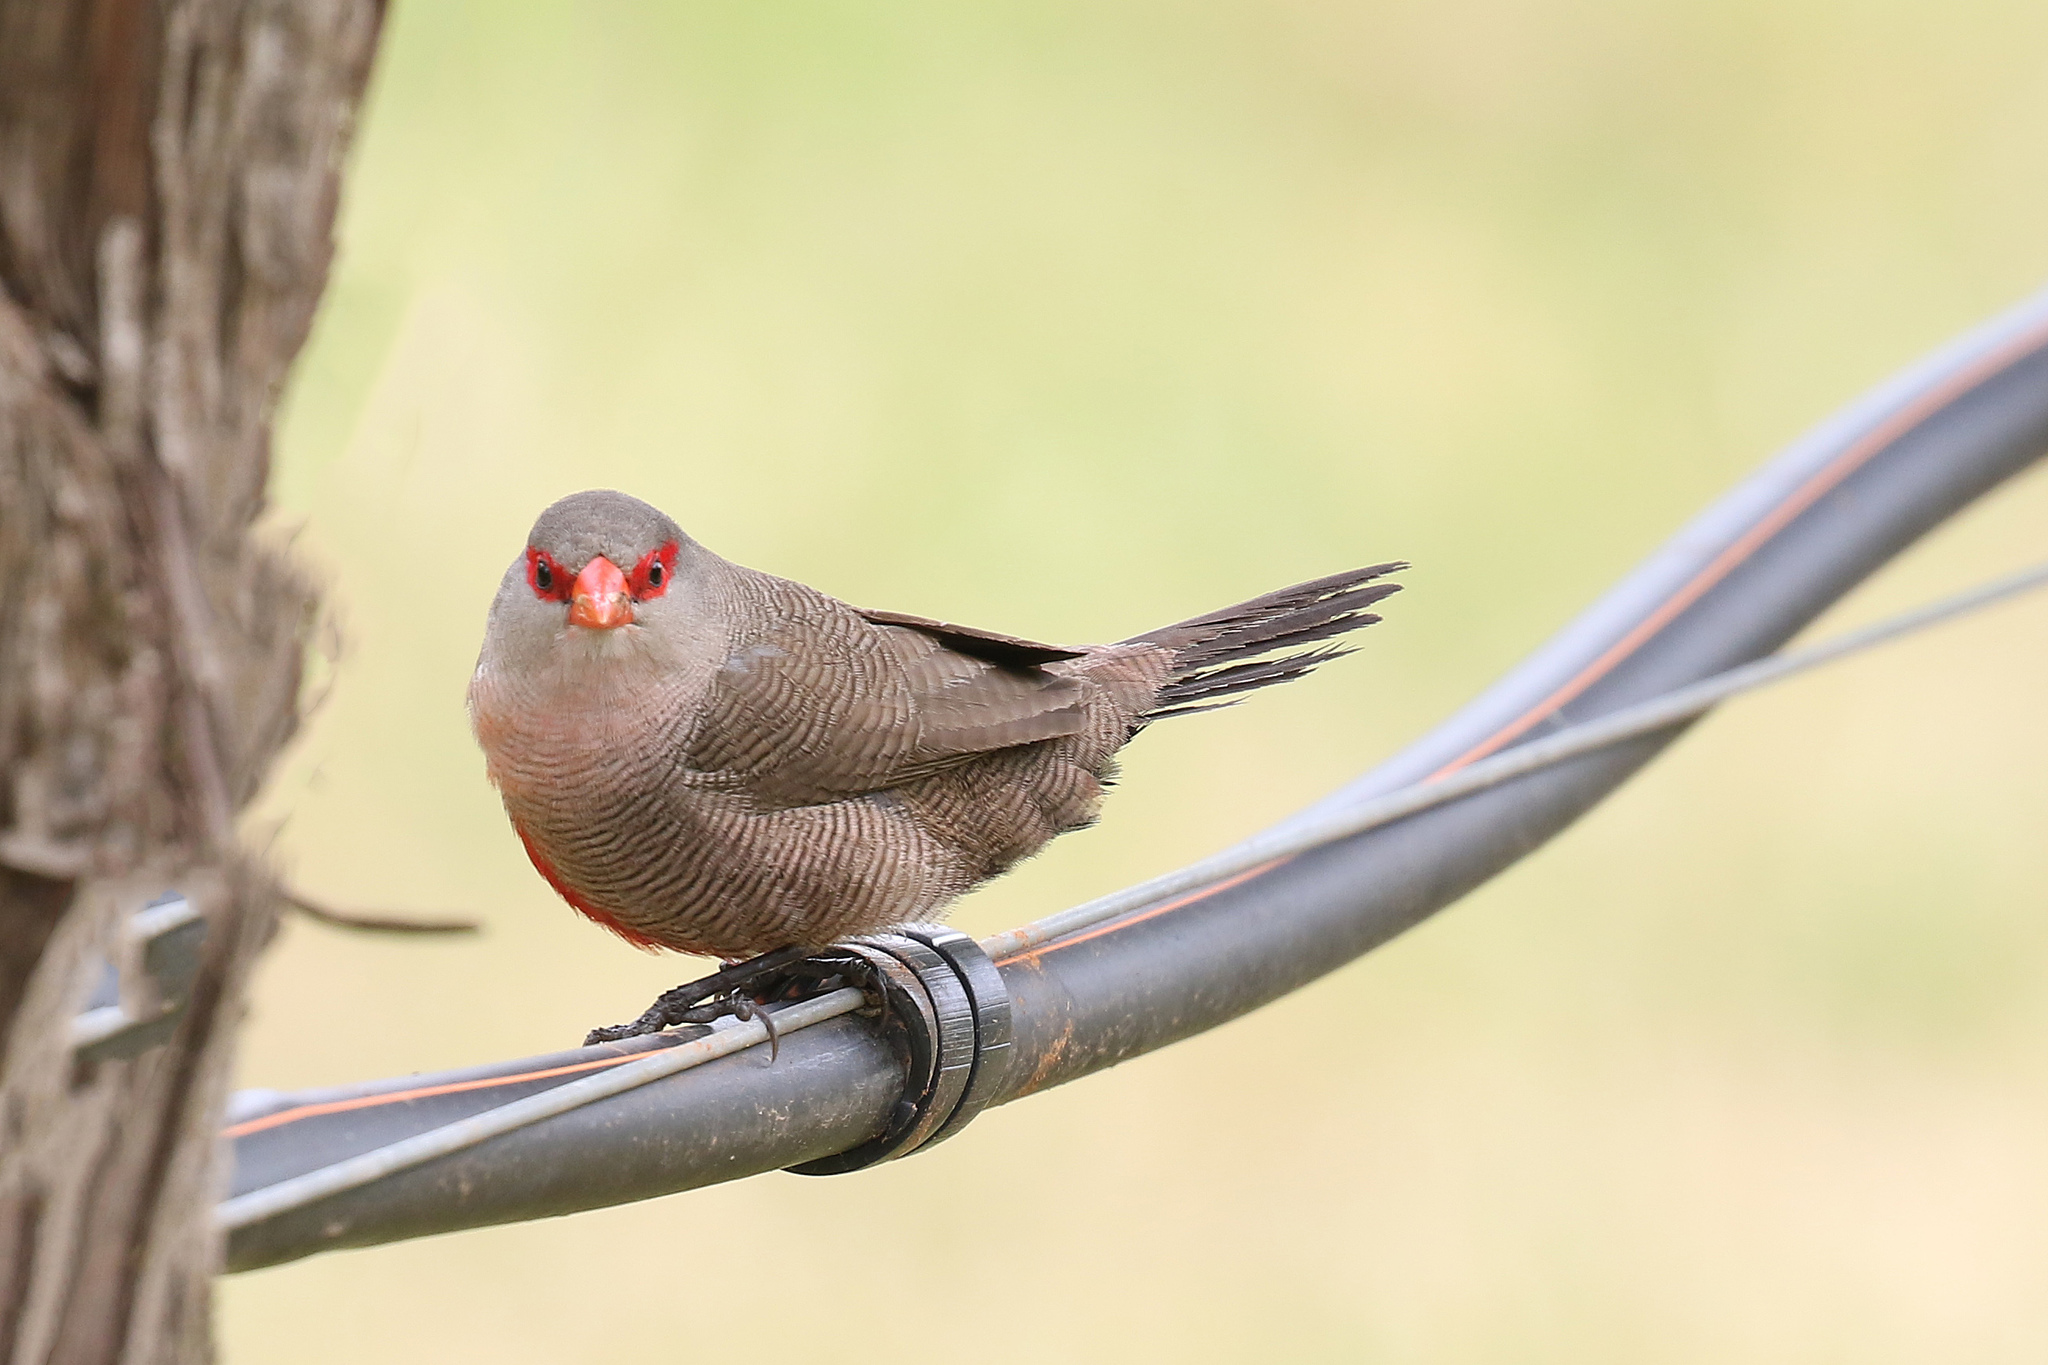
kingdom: Animalia
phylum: Chordata
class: Aves
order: Passeriformes
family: Estrildidae
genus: Estrilda
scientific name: Estrilda astrild
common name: Common waxbill
